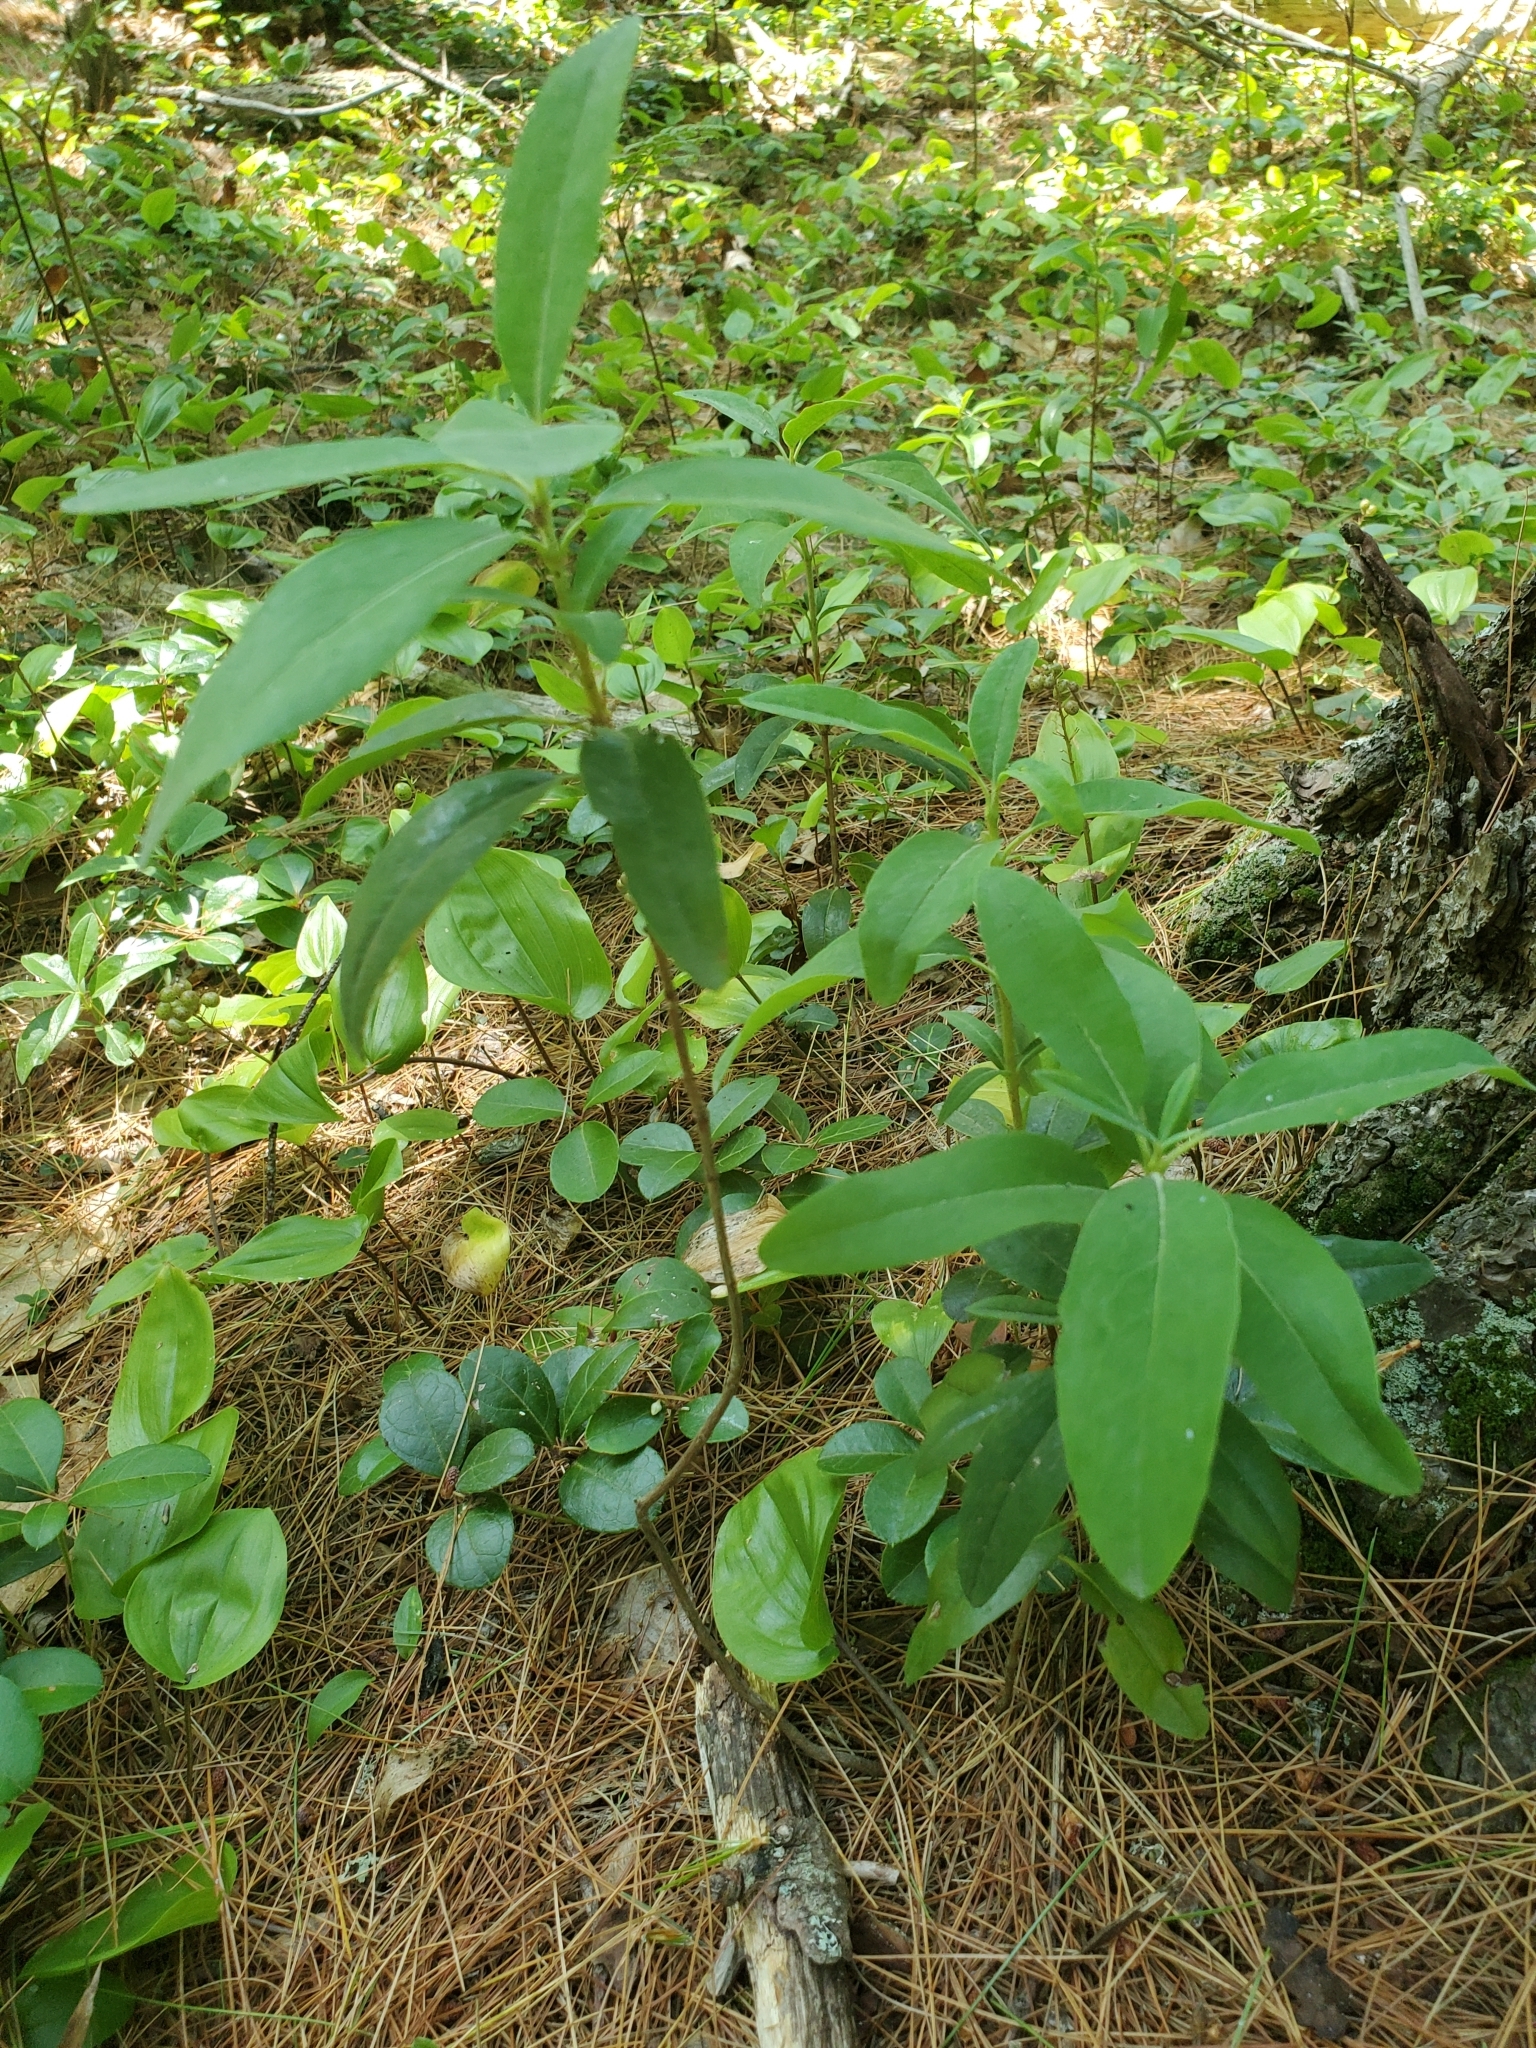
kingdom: Plantae
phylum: Tracheophyta
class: Magnoliopsida
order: Ericales
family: Ericaceae
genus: Kalmia
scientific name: Kalmia angustifolia
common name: Sheep-laurel
